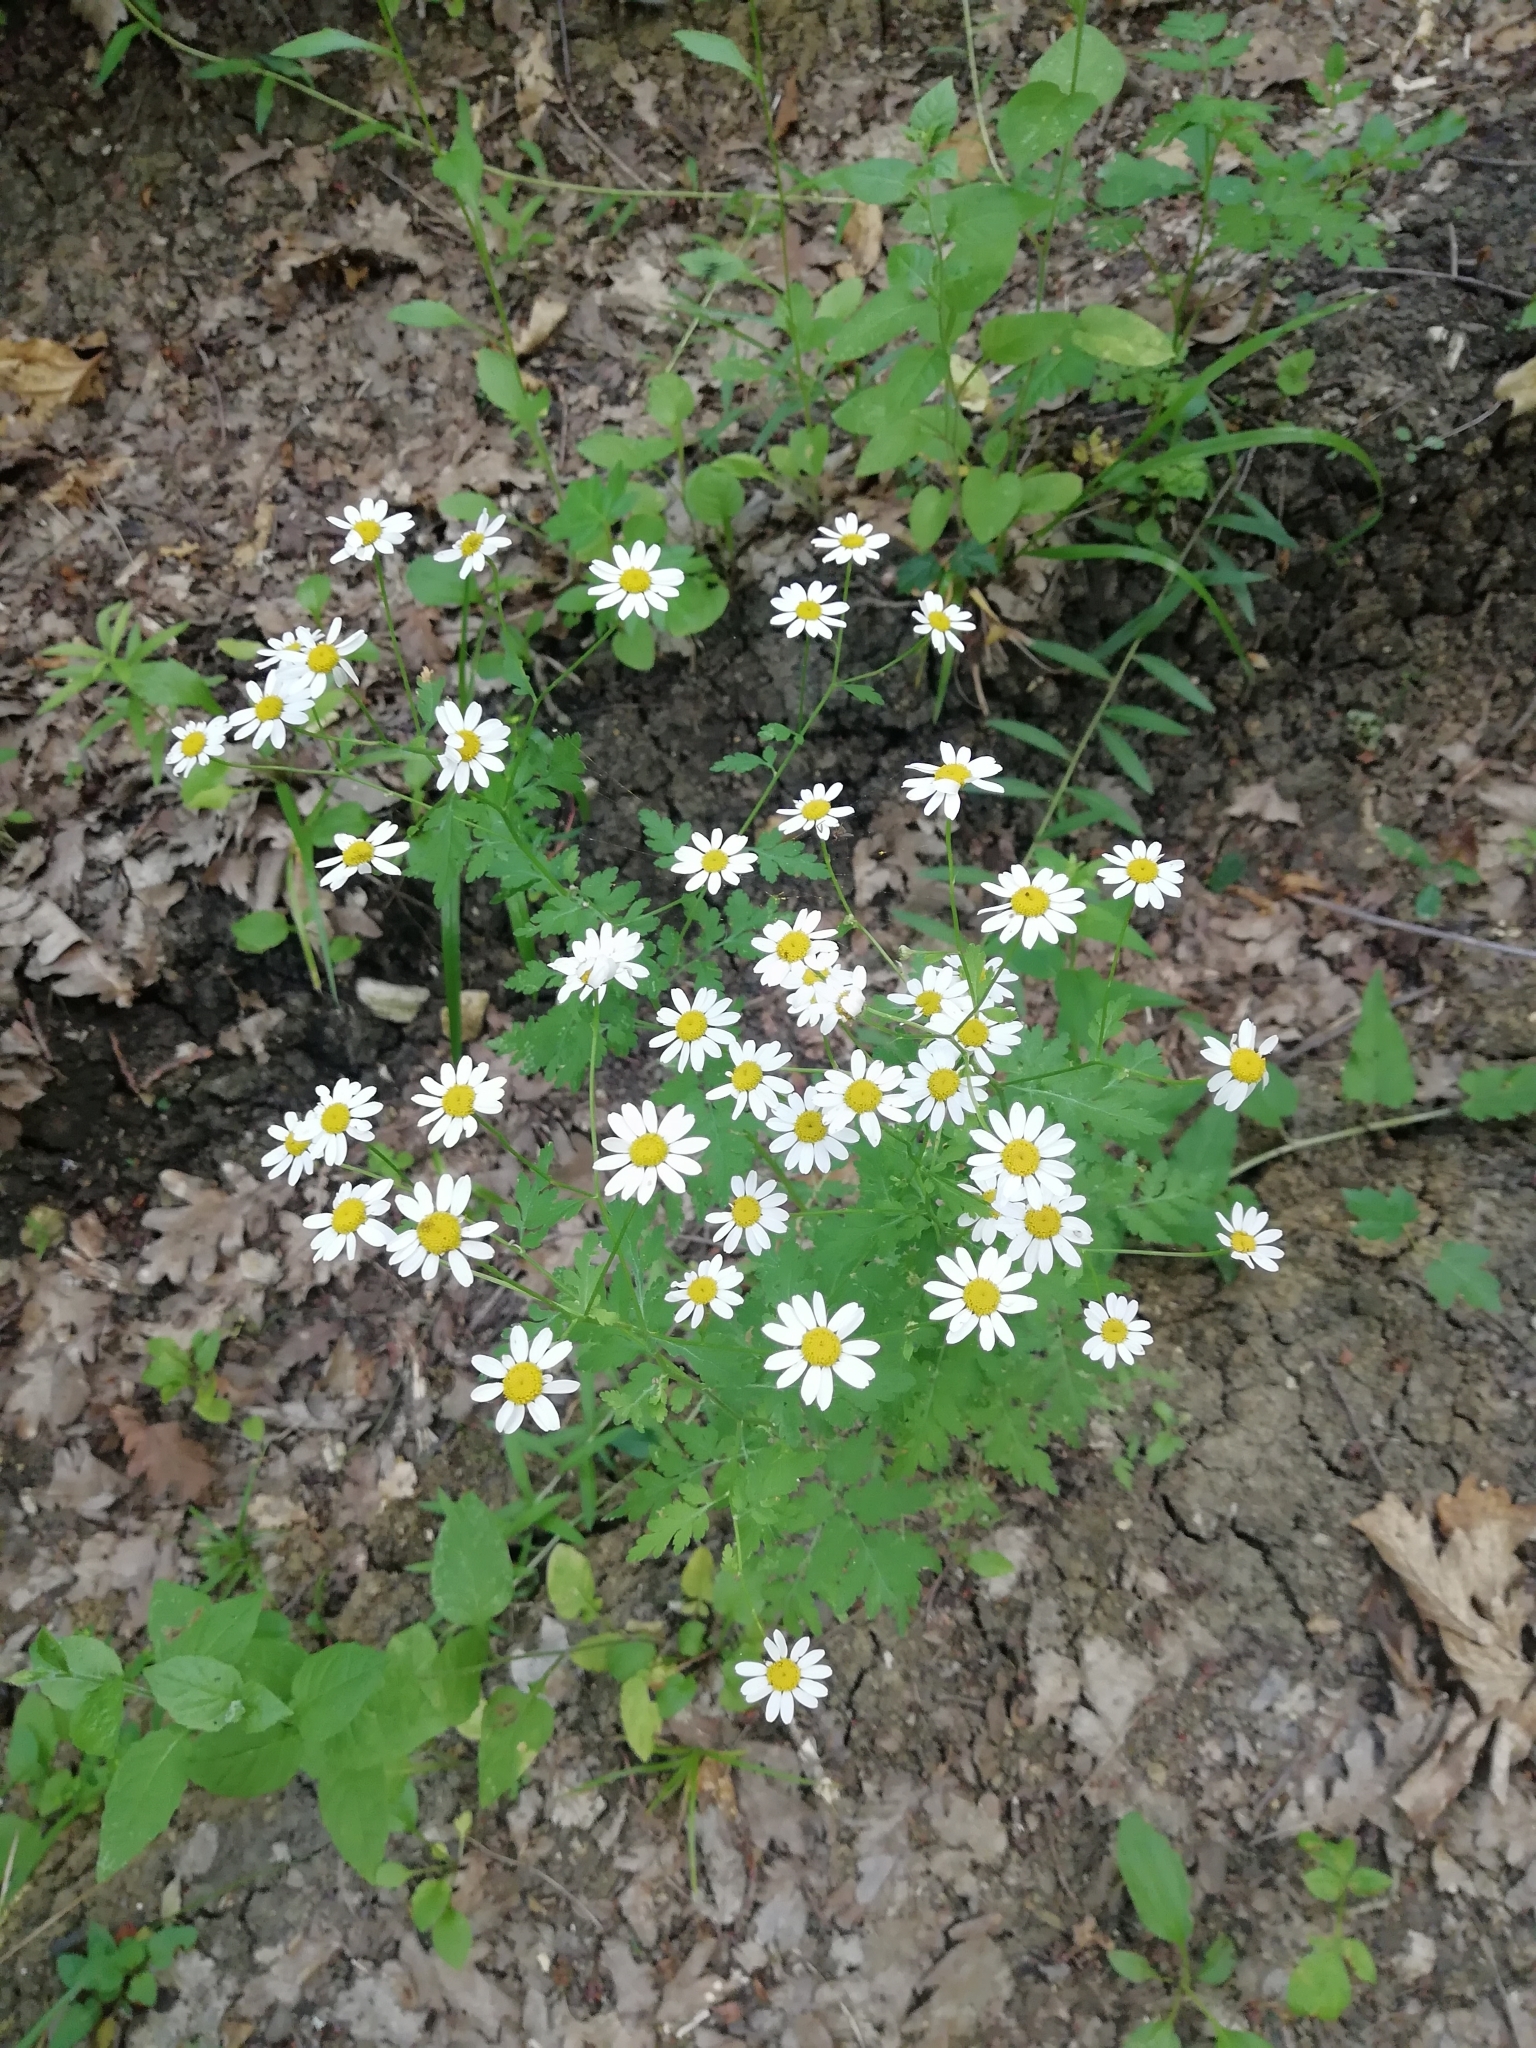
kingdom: Plantae
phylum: Tracheophyta
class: Magnoliopsida
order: Asterales
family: Asteraceae
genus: Tanacetum
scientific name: Tanacetum partheniifolium
